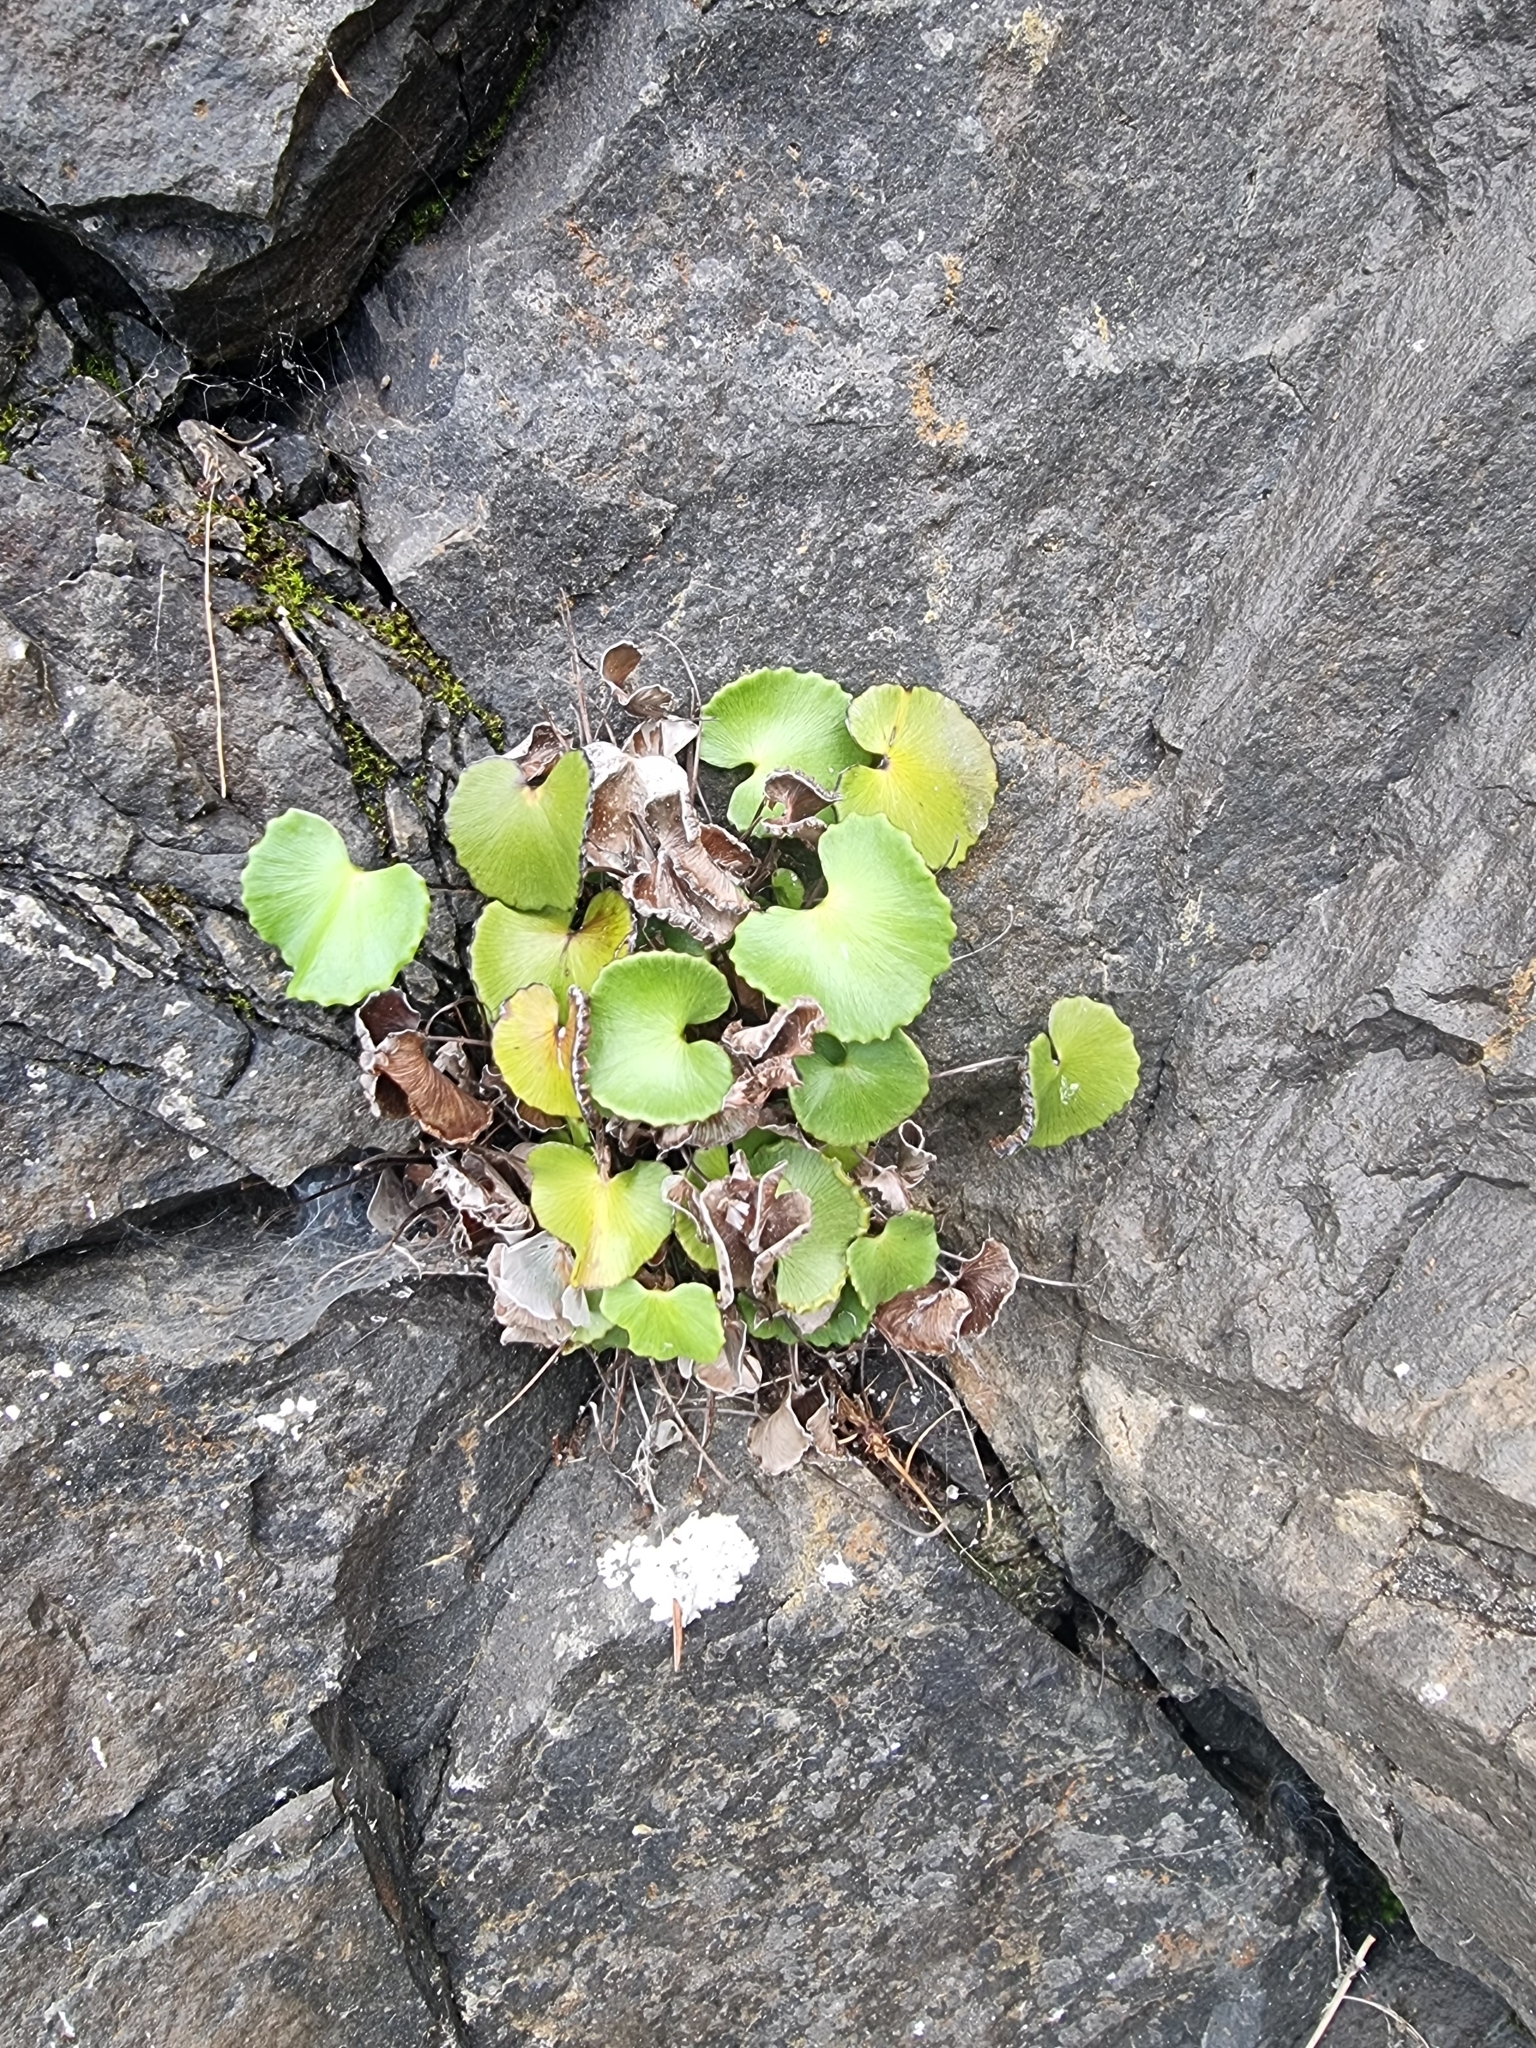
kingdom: Plantae
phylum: Tracheophyta
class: Polypodiopsida
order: Polypodiales
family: Pteridaceae
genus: Adiantum
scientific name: Adiantum reniforme
